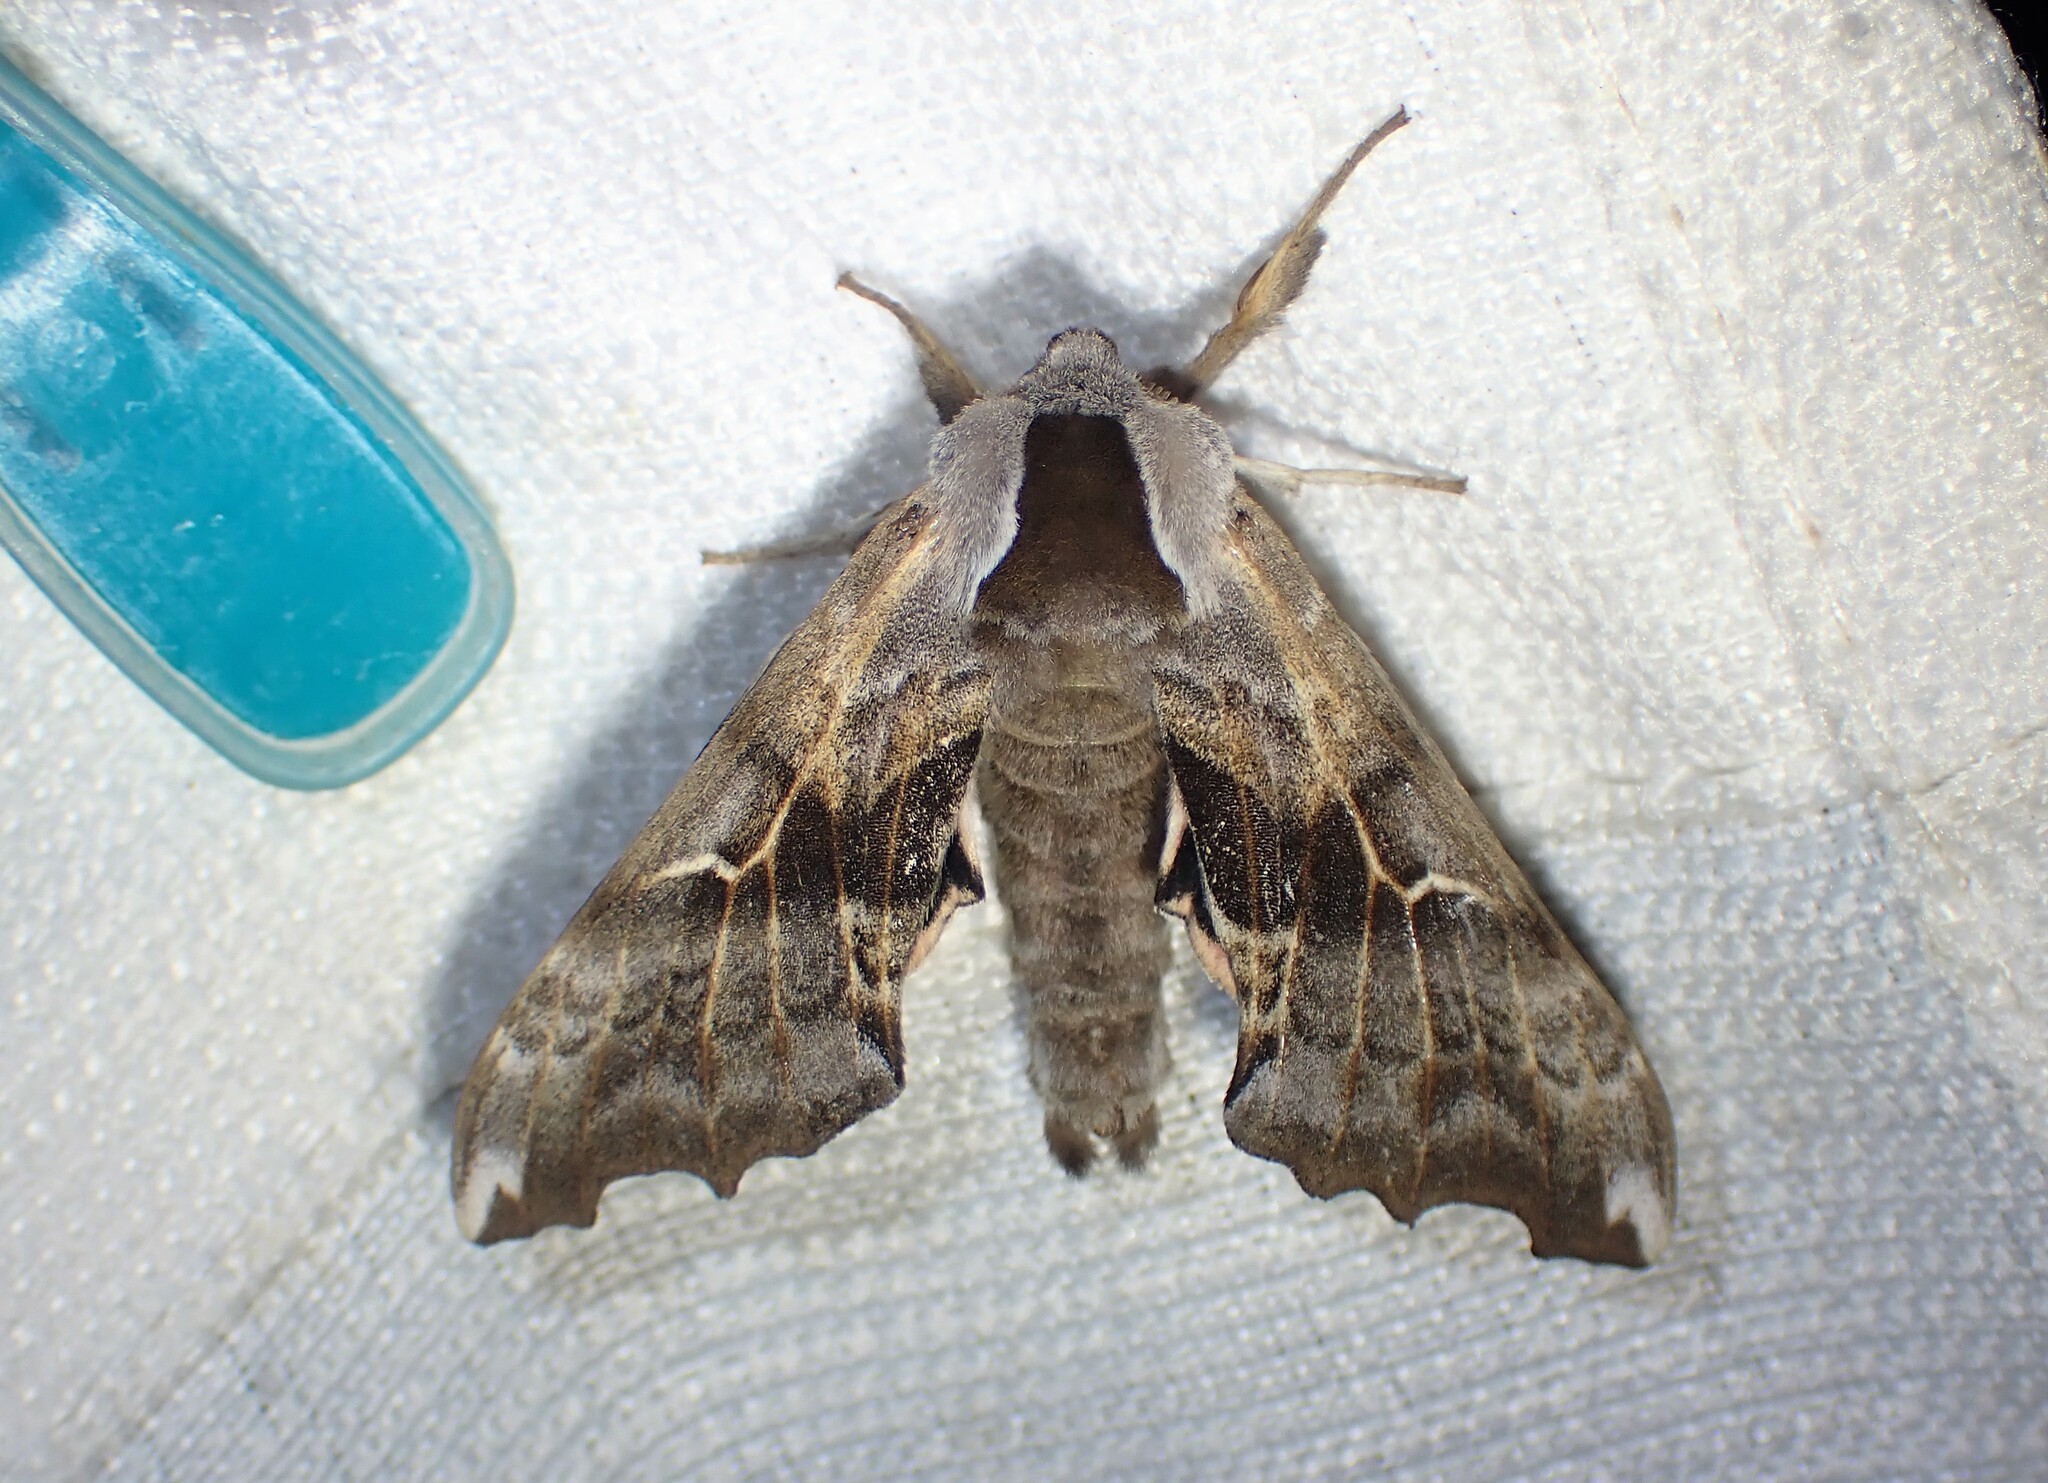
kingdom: Animalia
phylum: Arthropoda
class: Insecta
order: Lepidoptera
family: Sphingidae
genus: Smerinthus
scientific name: Smerinthus cerisyi
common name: Cerisy's sphinx moth
